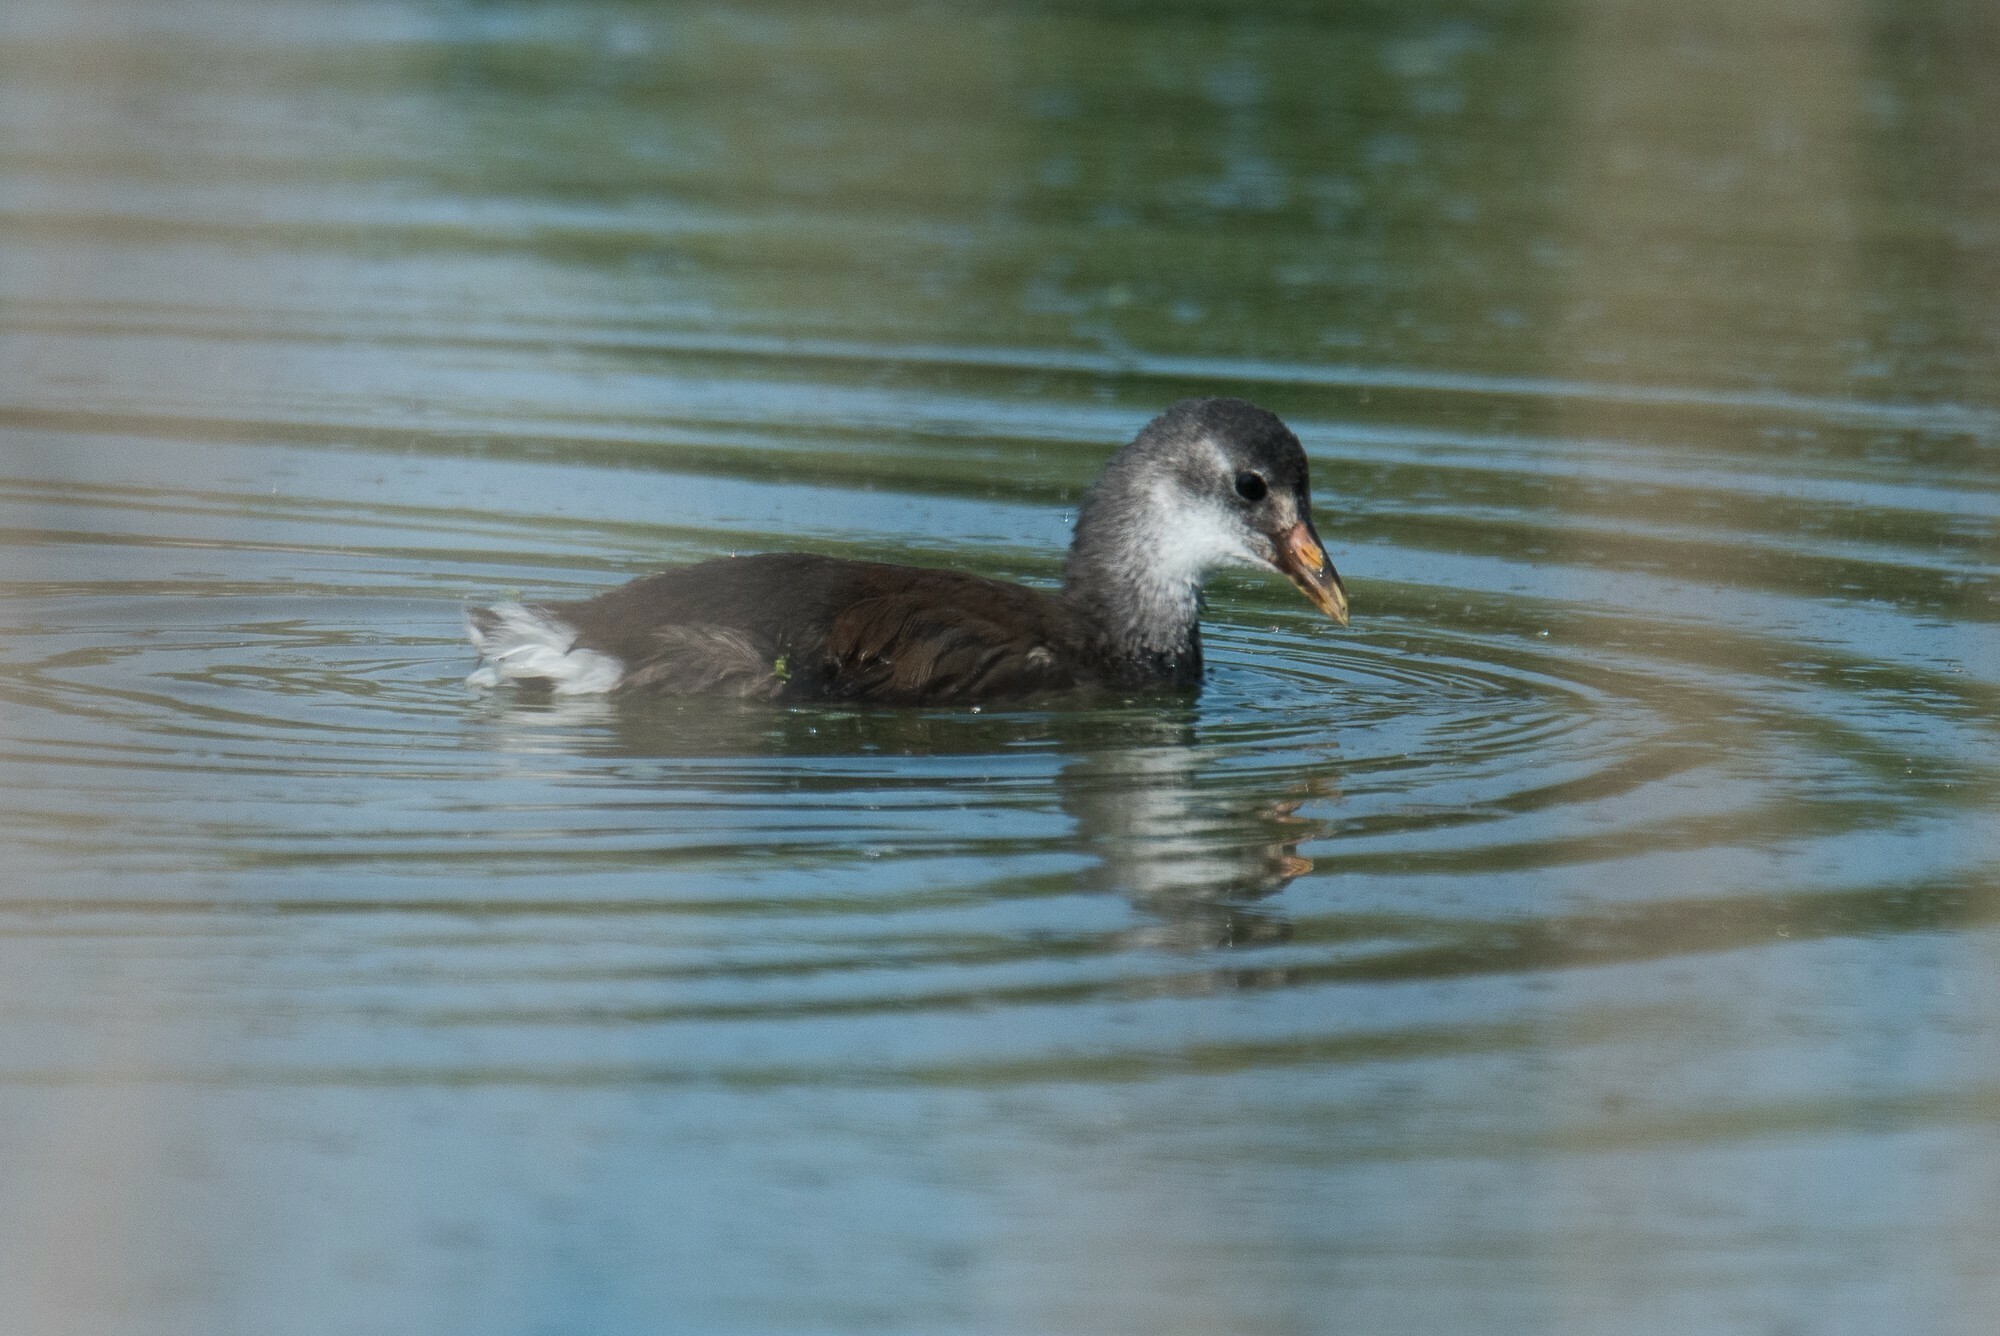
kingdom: Animalia
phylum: Chordata
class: Aves
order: Gruiformes
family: Rallidae
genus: Gallinula
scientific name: Gallinula chloropus
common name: Common moorhen
